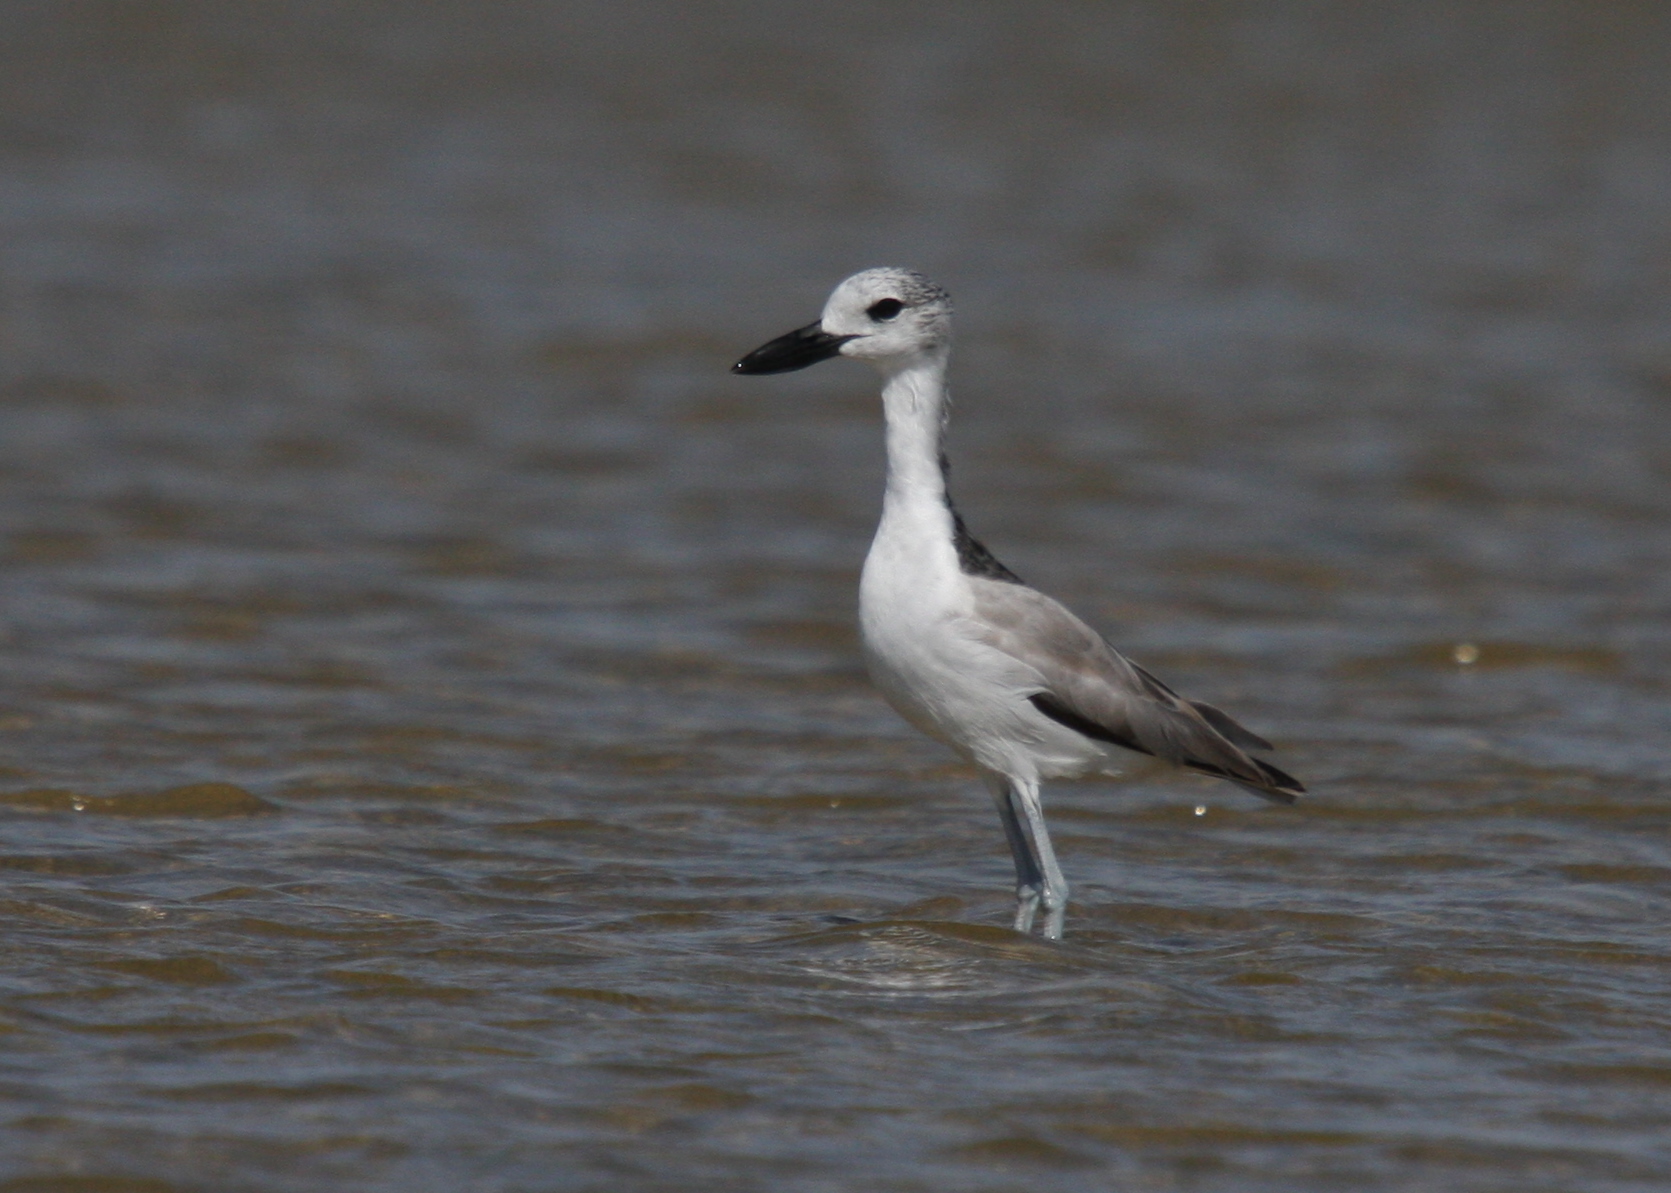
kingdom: Animalia
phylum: Chordata
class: Aves
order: Charadriiformes
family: Dromadidae
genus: Dromas
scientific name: Dromas ardeola
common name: Crab-plover
